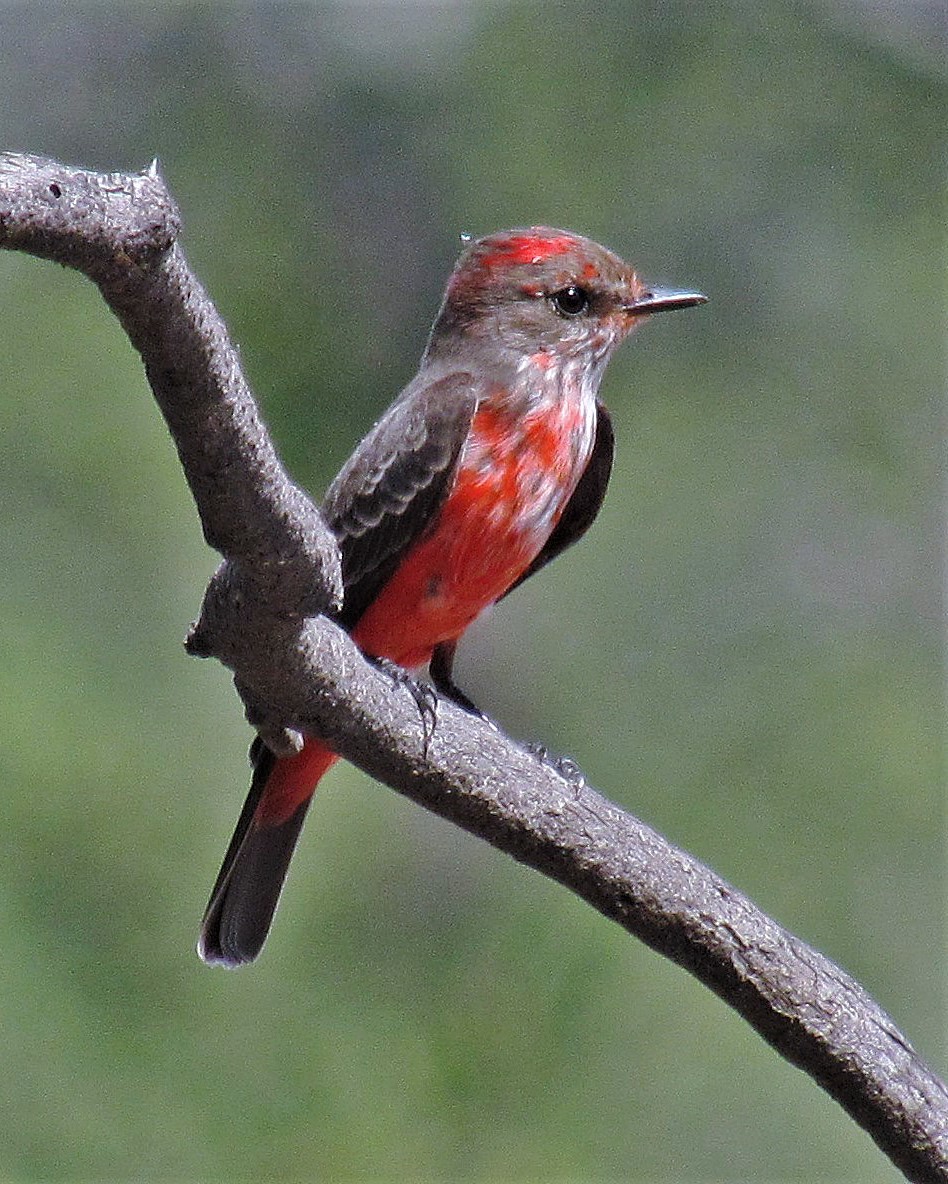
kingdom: Animalia
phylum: Chordata
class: Aves
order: Passeriformes
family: Tyrannidae
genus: Pyrocephalus
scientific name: Pyrocephalus rubinus
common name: Vermilion flycatcher
